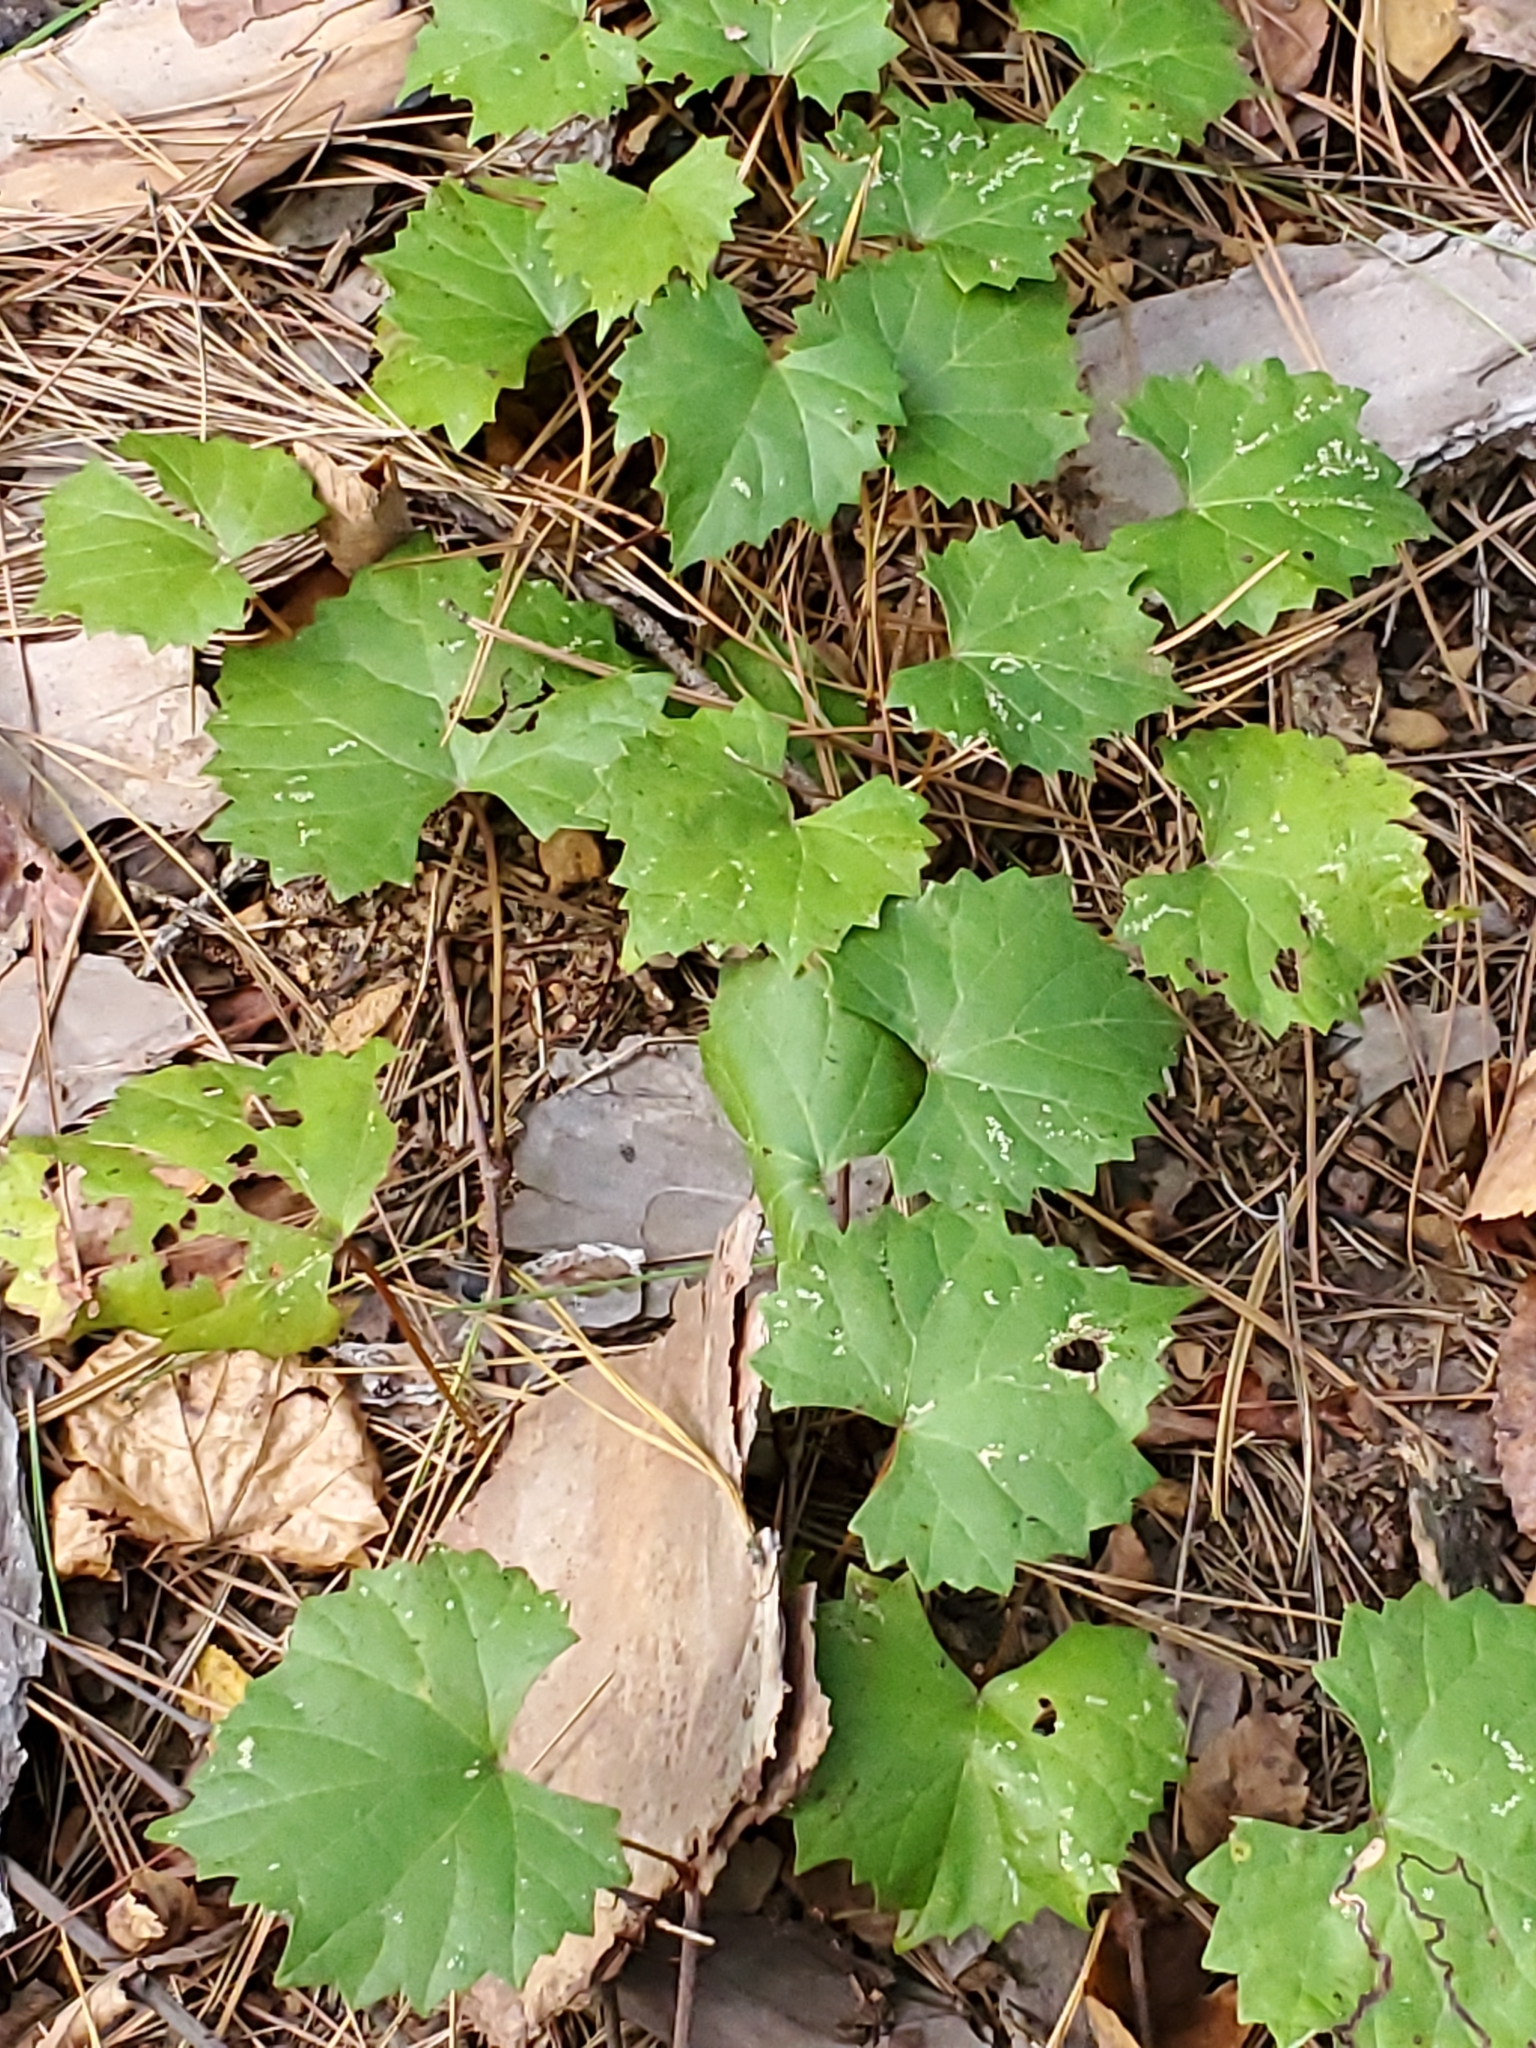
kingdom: Plantae
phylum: Tracheophyta
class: Magnoliopsida
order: Vitales
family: Vitaceae
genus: Vitis
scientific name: Vitis rotundifolia
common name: Muscadine grape
